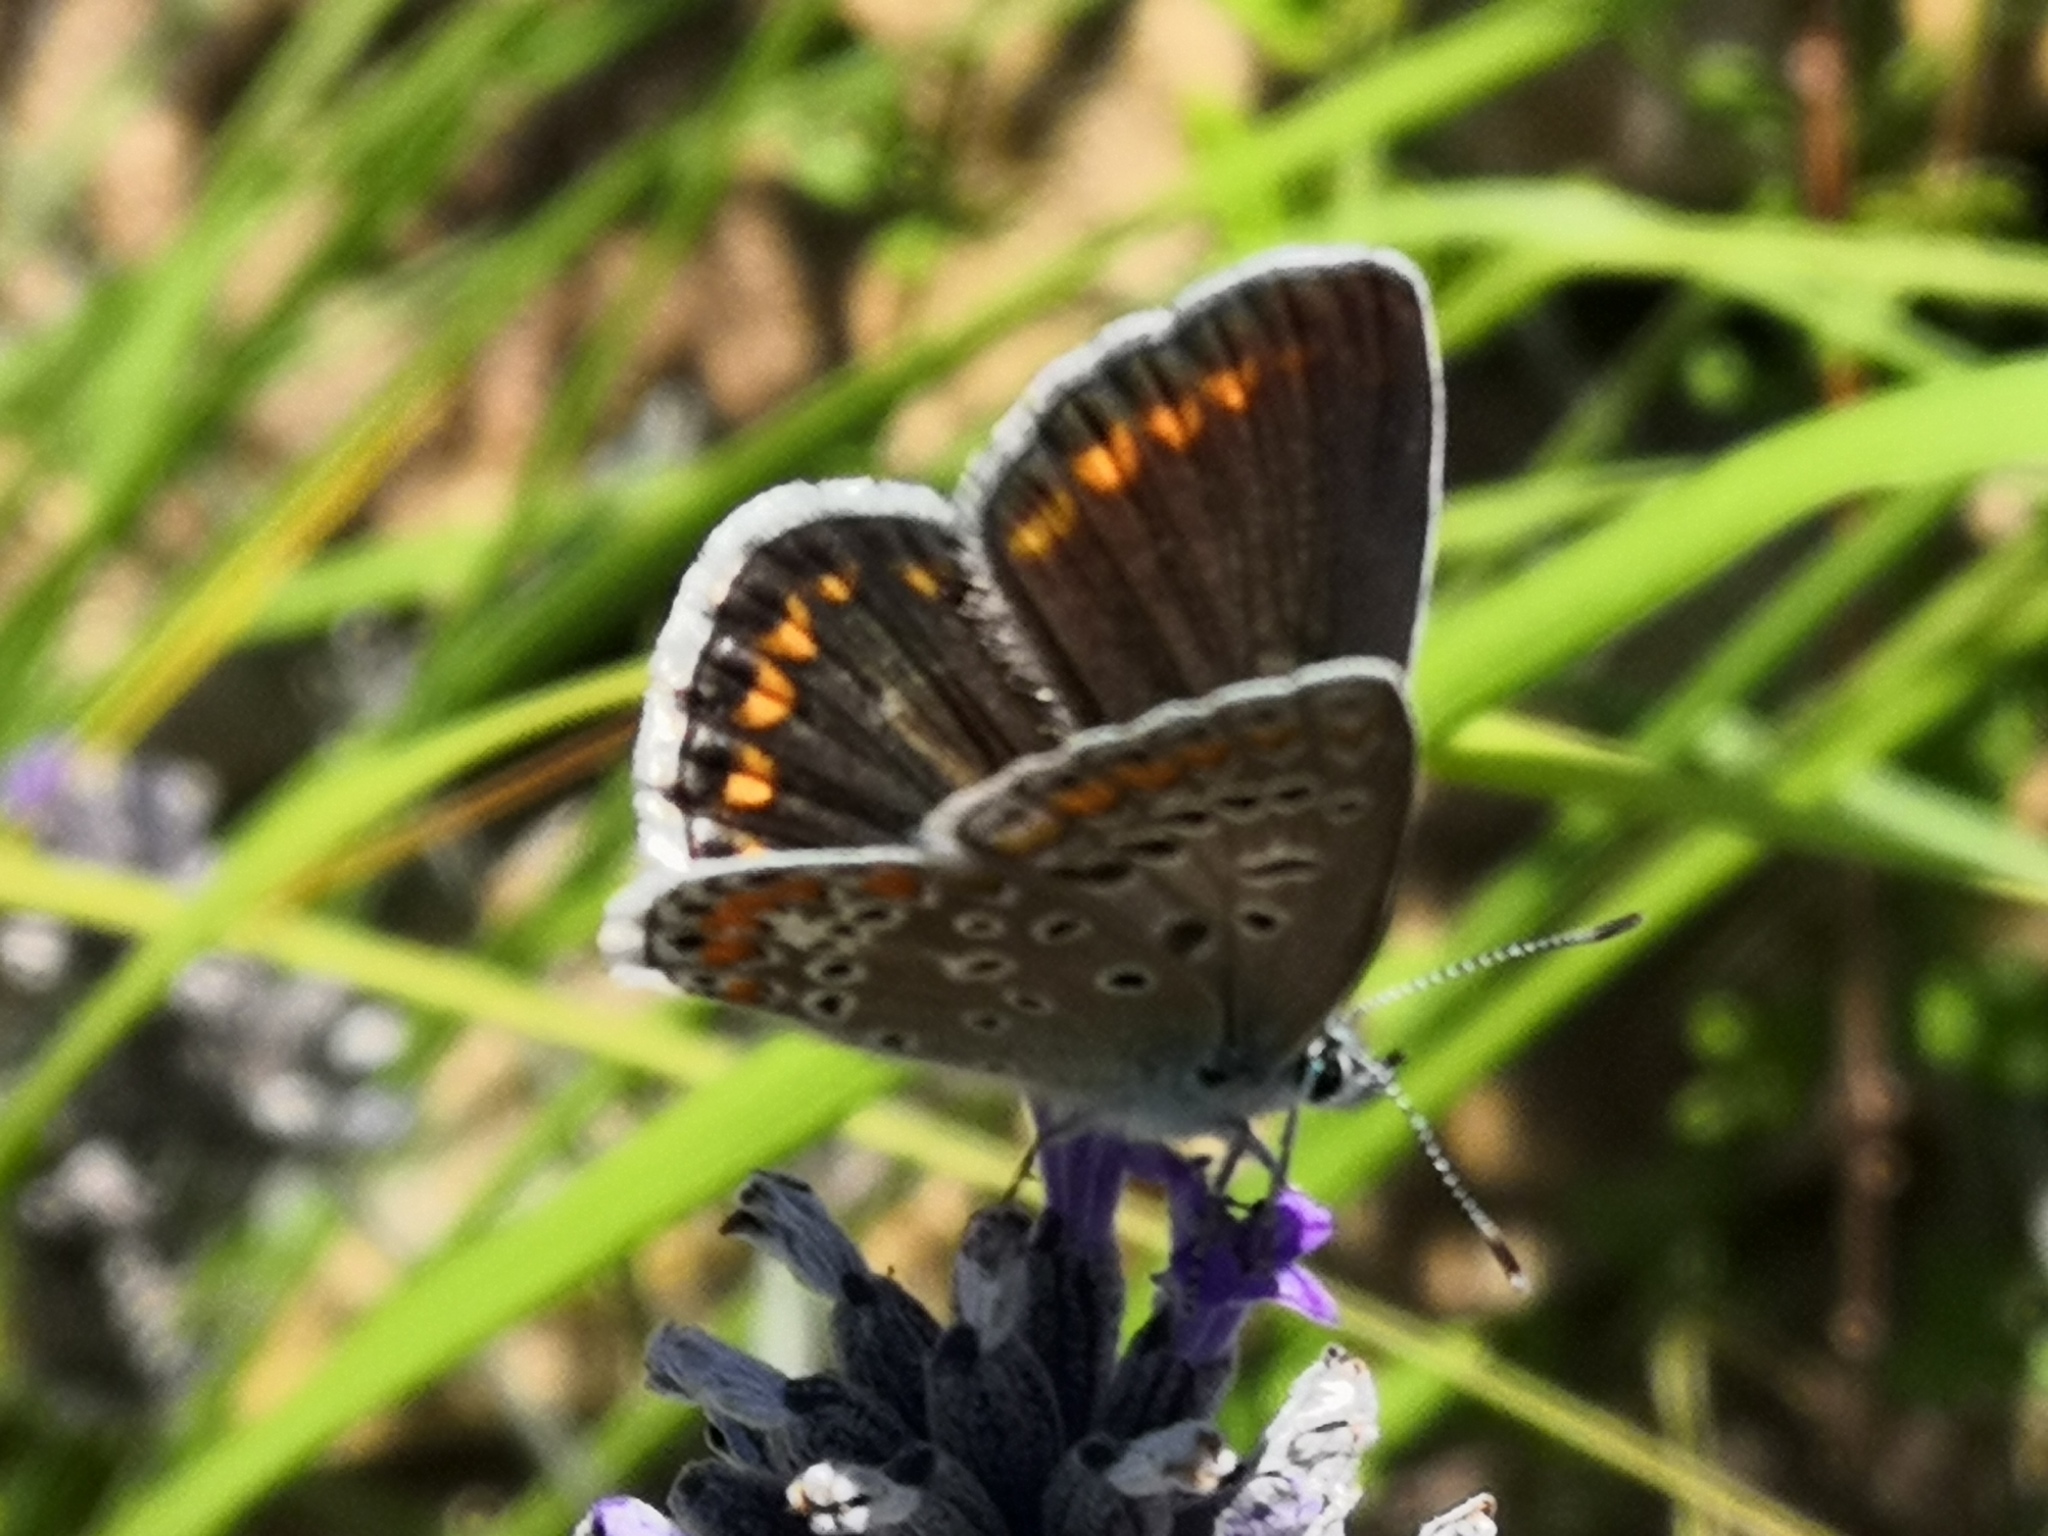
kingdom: Animalia
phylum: Arthropoda
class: Insecta
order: Lepidoptera
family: Lycaenidae
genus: Polyommatus
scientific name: Polyommatus icarus
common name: Common blue
